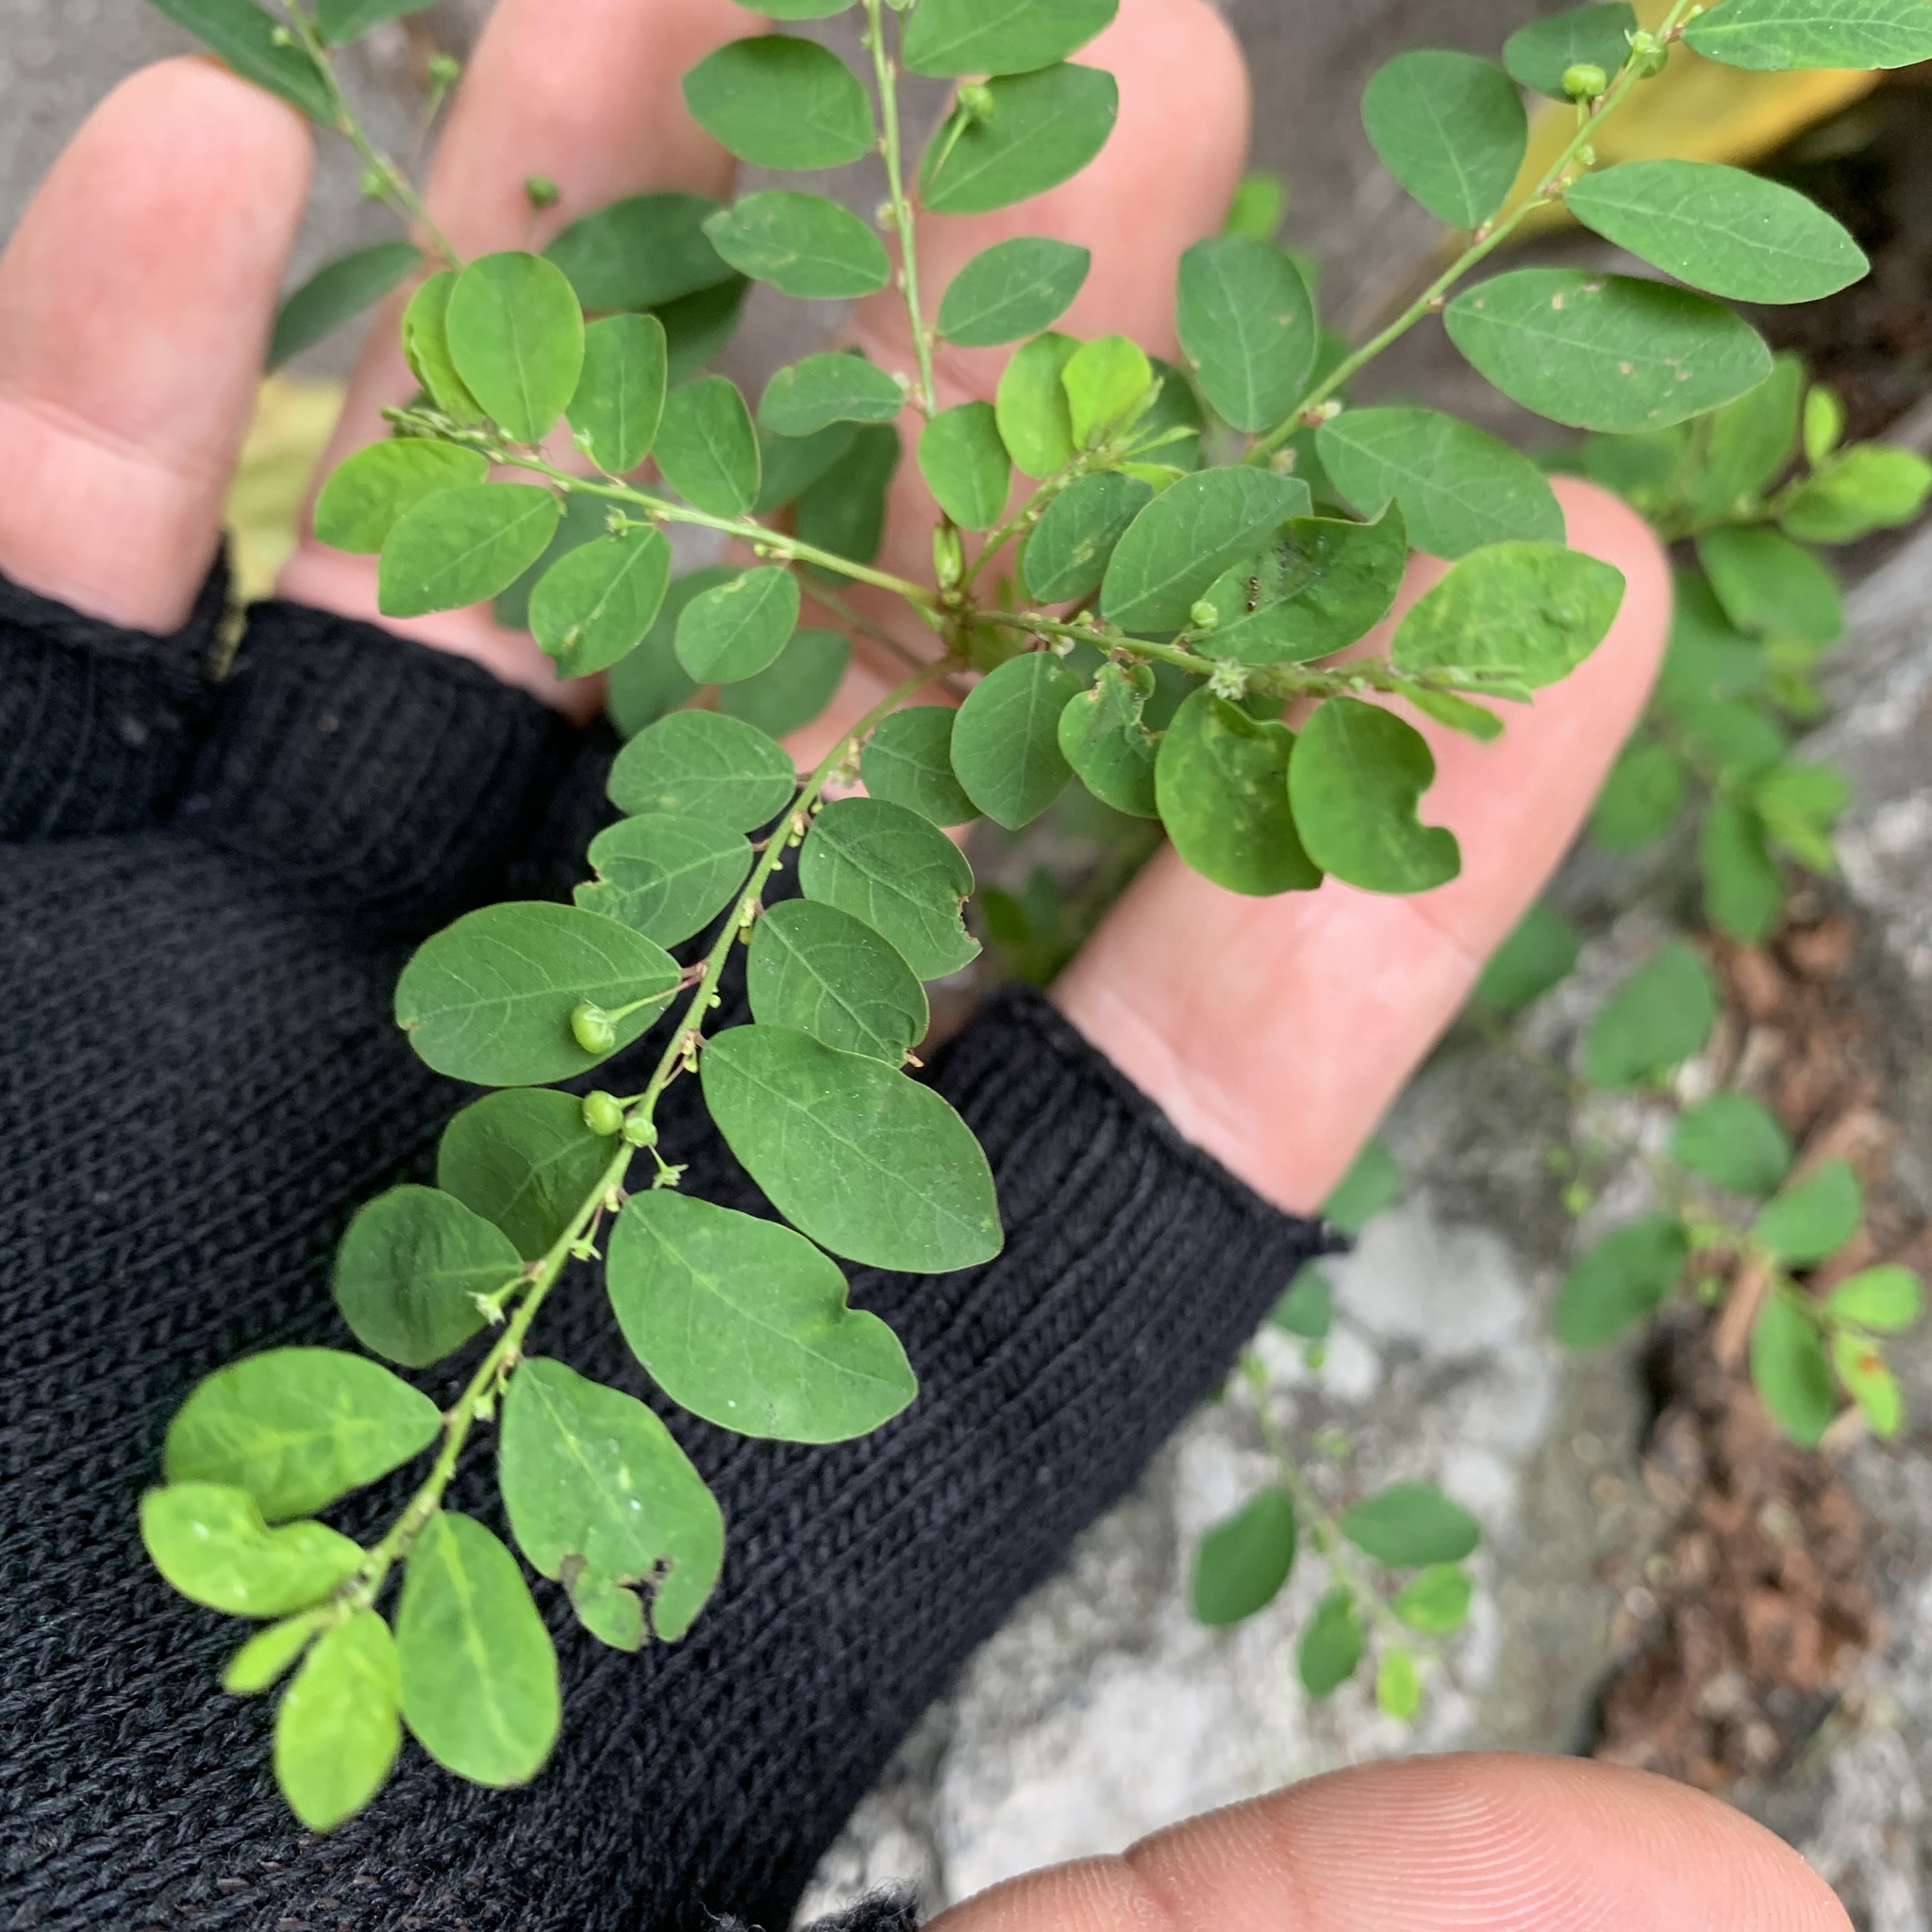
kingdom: Plantae
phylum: Tracheophyta
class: Magnoliopsida
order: Malpighiales
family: Phyllanthaceae
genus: Phyllanthus
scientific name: Phyllanthus tenellus
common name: Mascarene island leaf-flower
